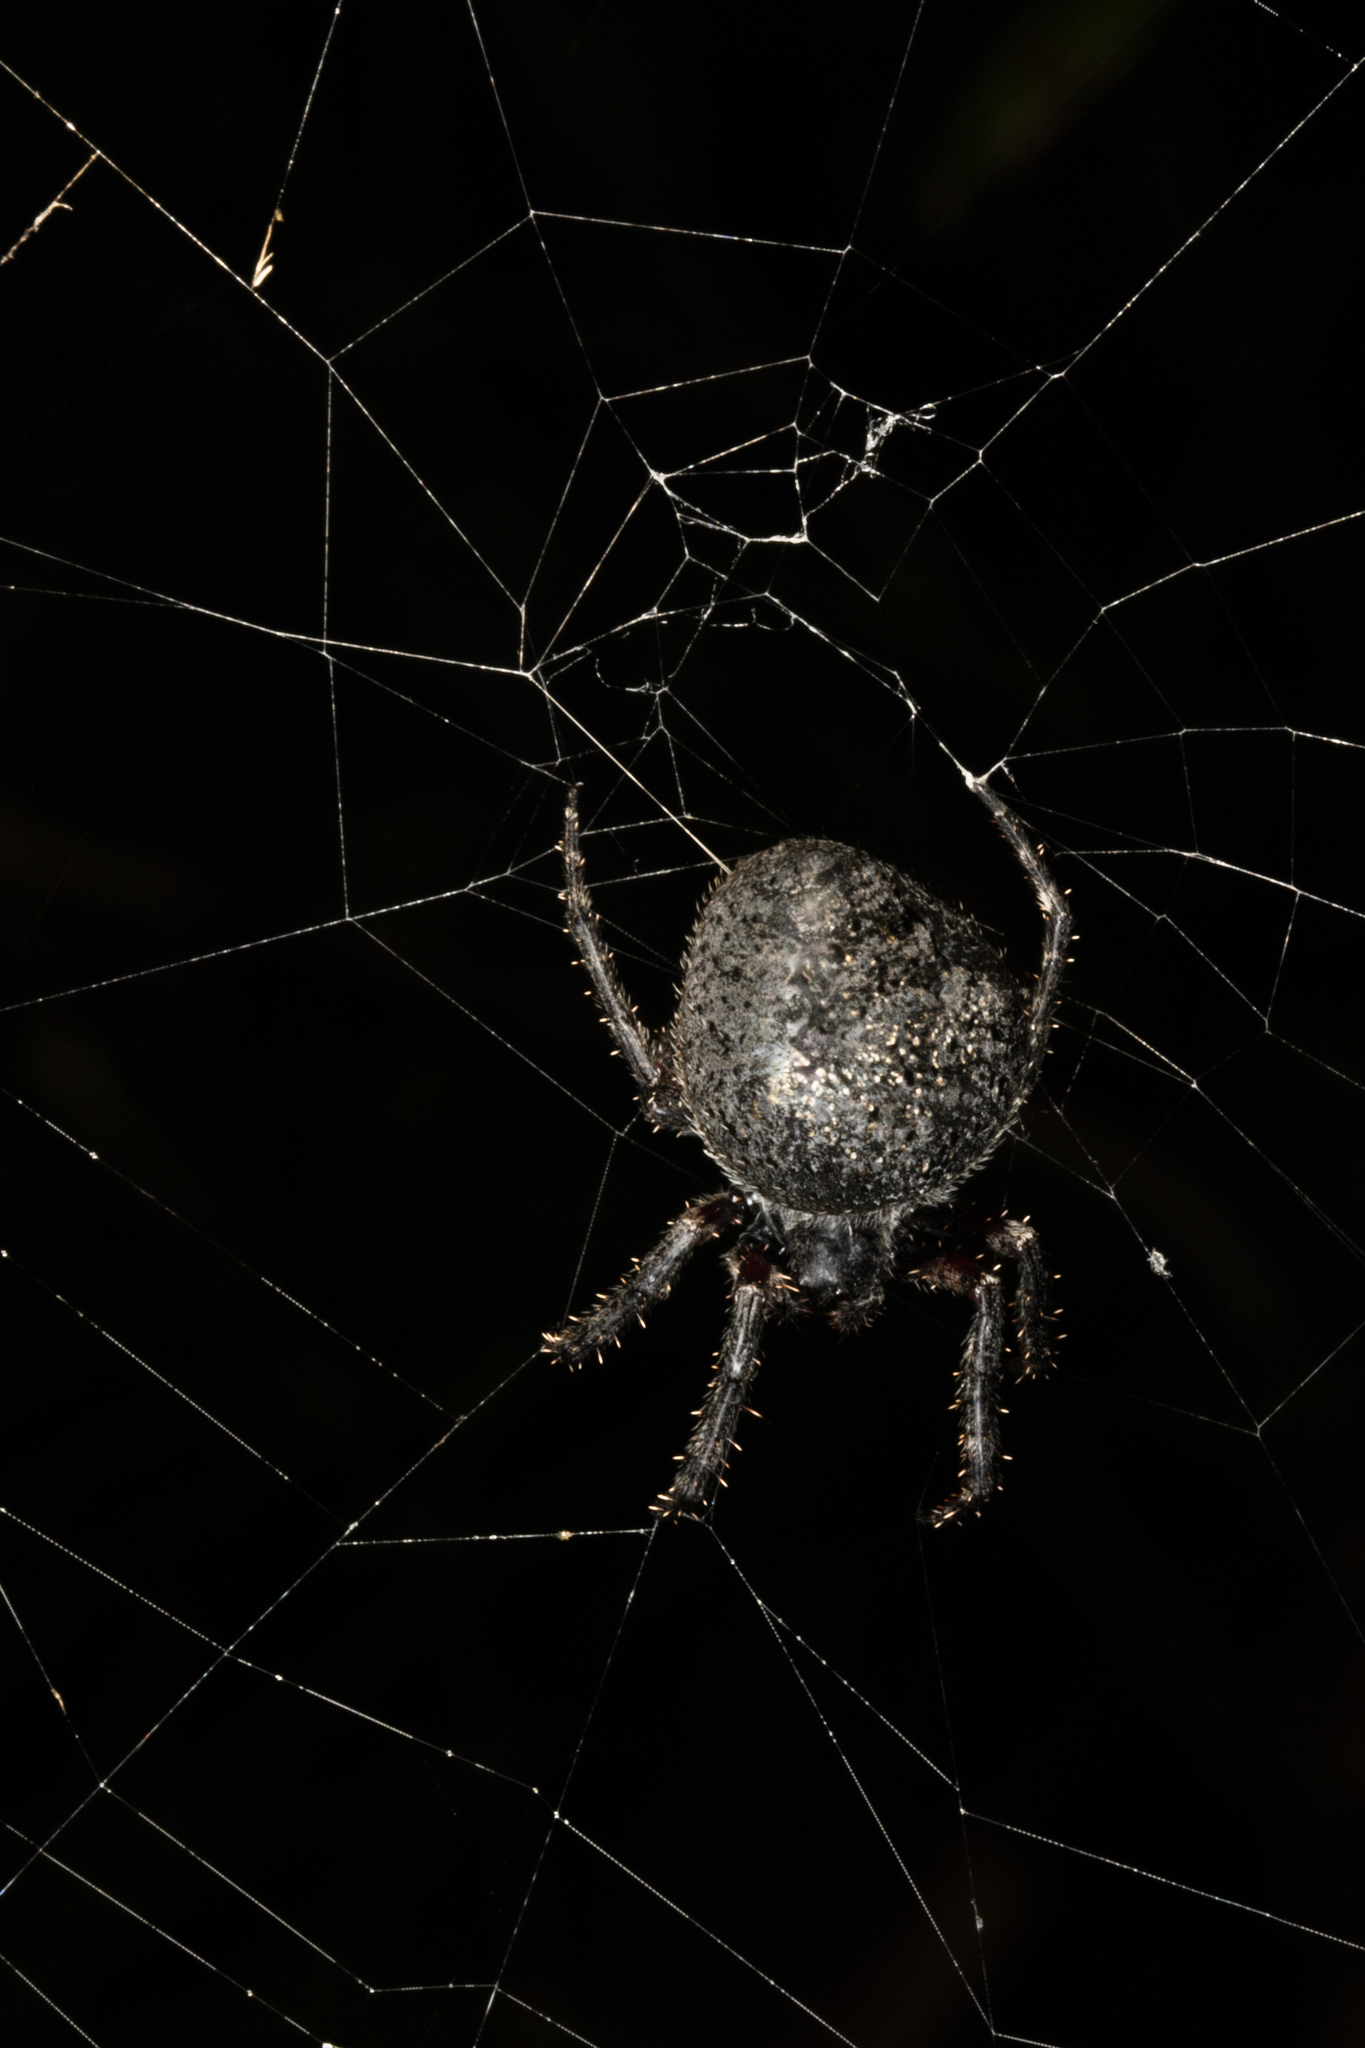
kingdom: Animalia
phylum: Arthropoda
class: Arachnida
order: Araneae
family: Araneidae
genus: Eriophora
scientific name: Eriophora pustulosa
